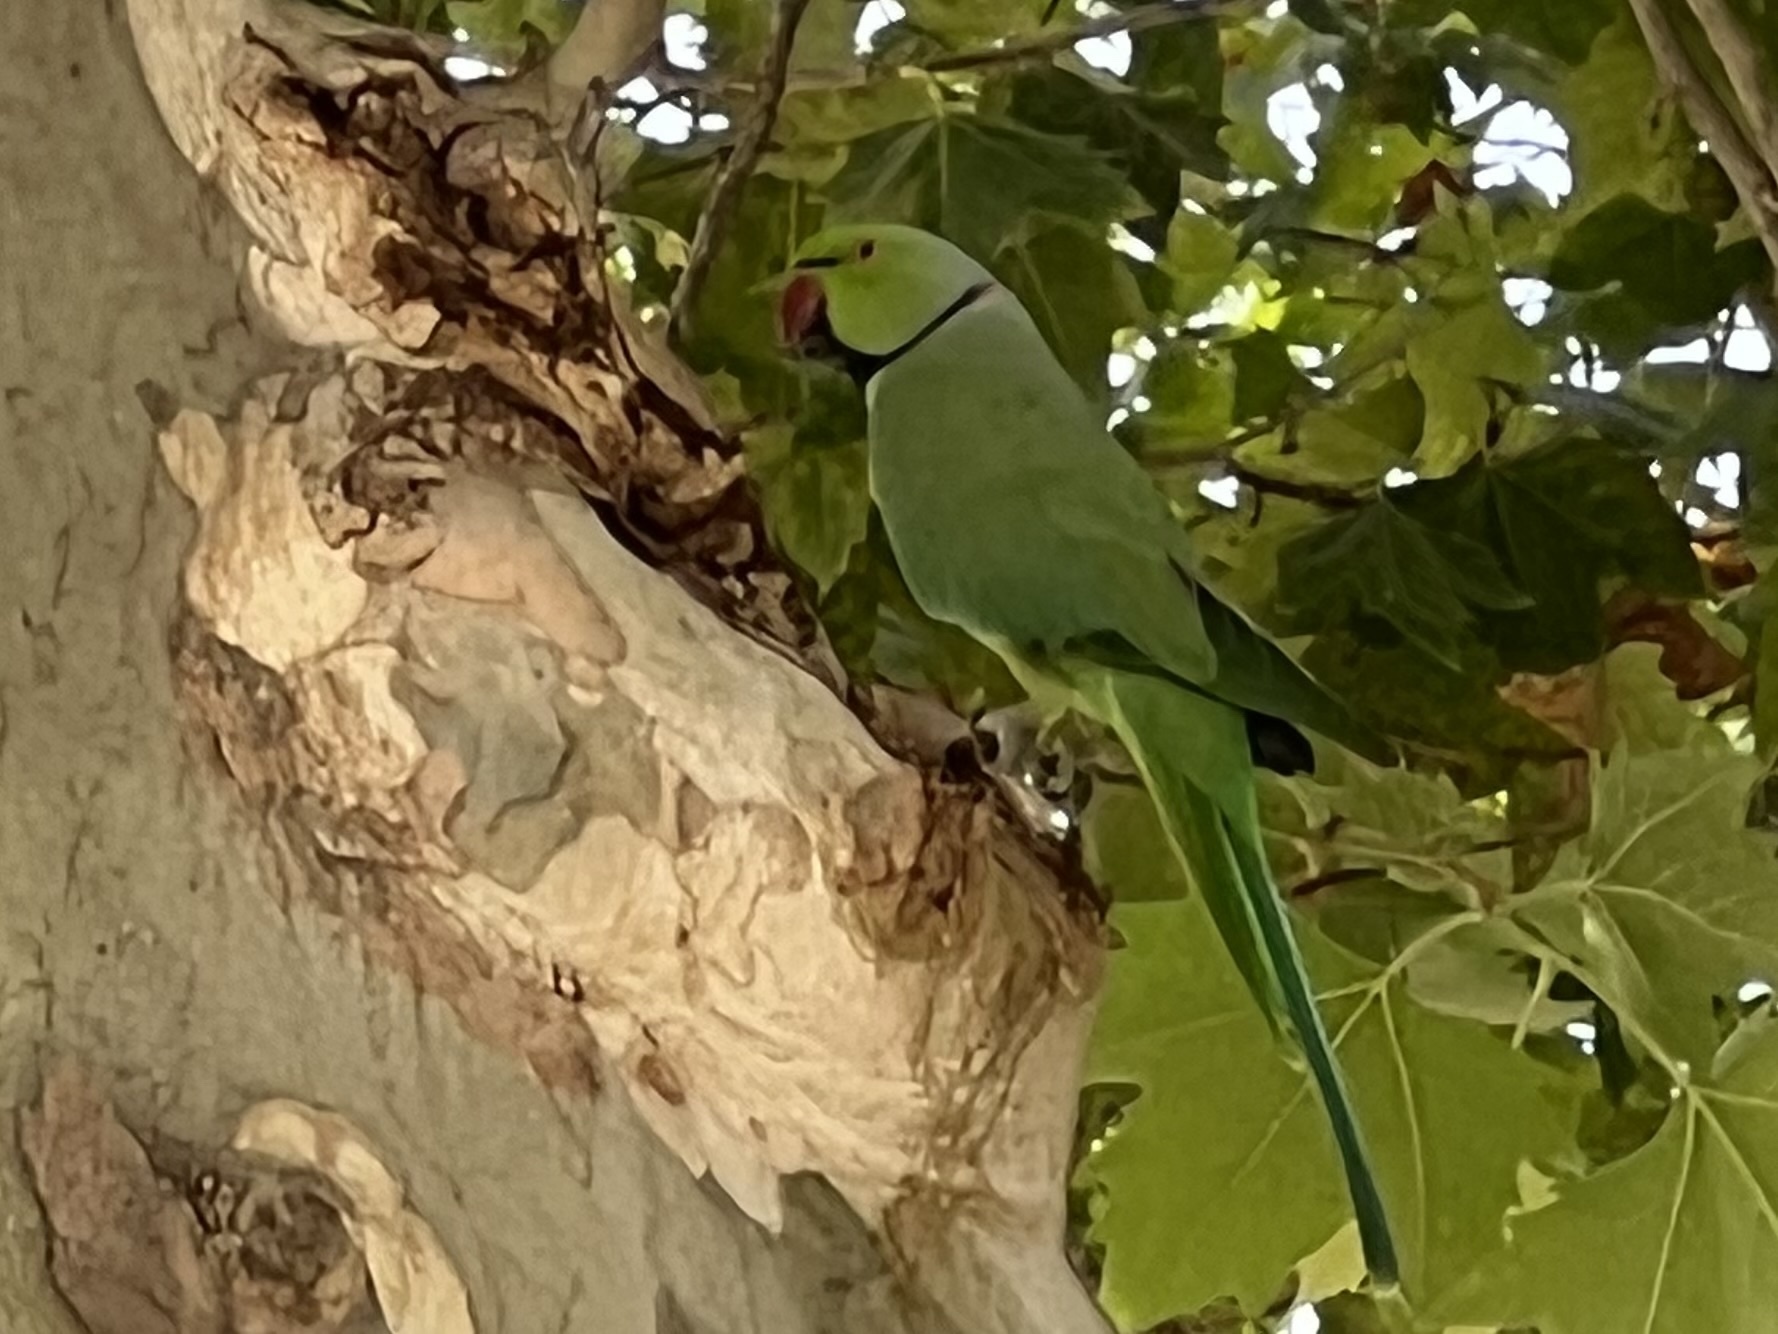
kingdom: Animalia
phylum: Chordata
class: Aves
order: Psittaciformes
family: Psittacidae
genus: Psittacula
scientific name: Psittacula krameri
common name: Rose-ringed parakeet
